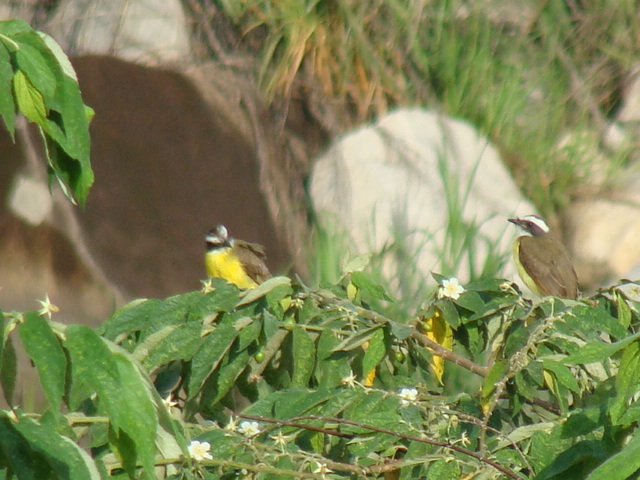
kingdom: Animalia
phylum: Chordata
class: Aves
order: Passeriformes
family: Tyrannidae
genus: Myiozetetes
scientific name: Myiozetetes similis
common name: Social flycatcher
